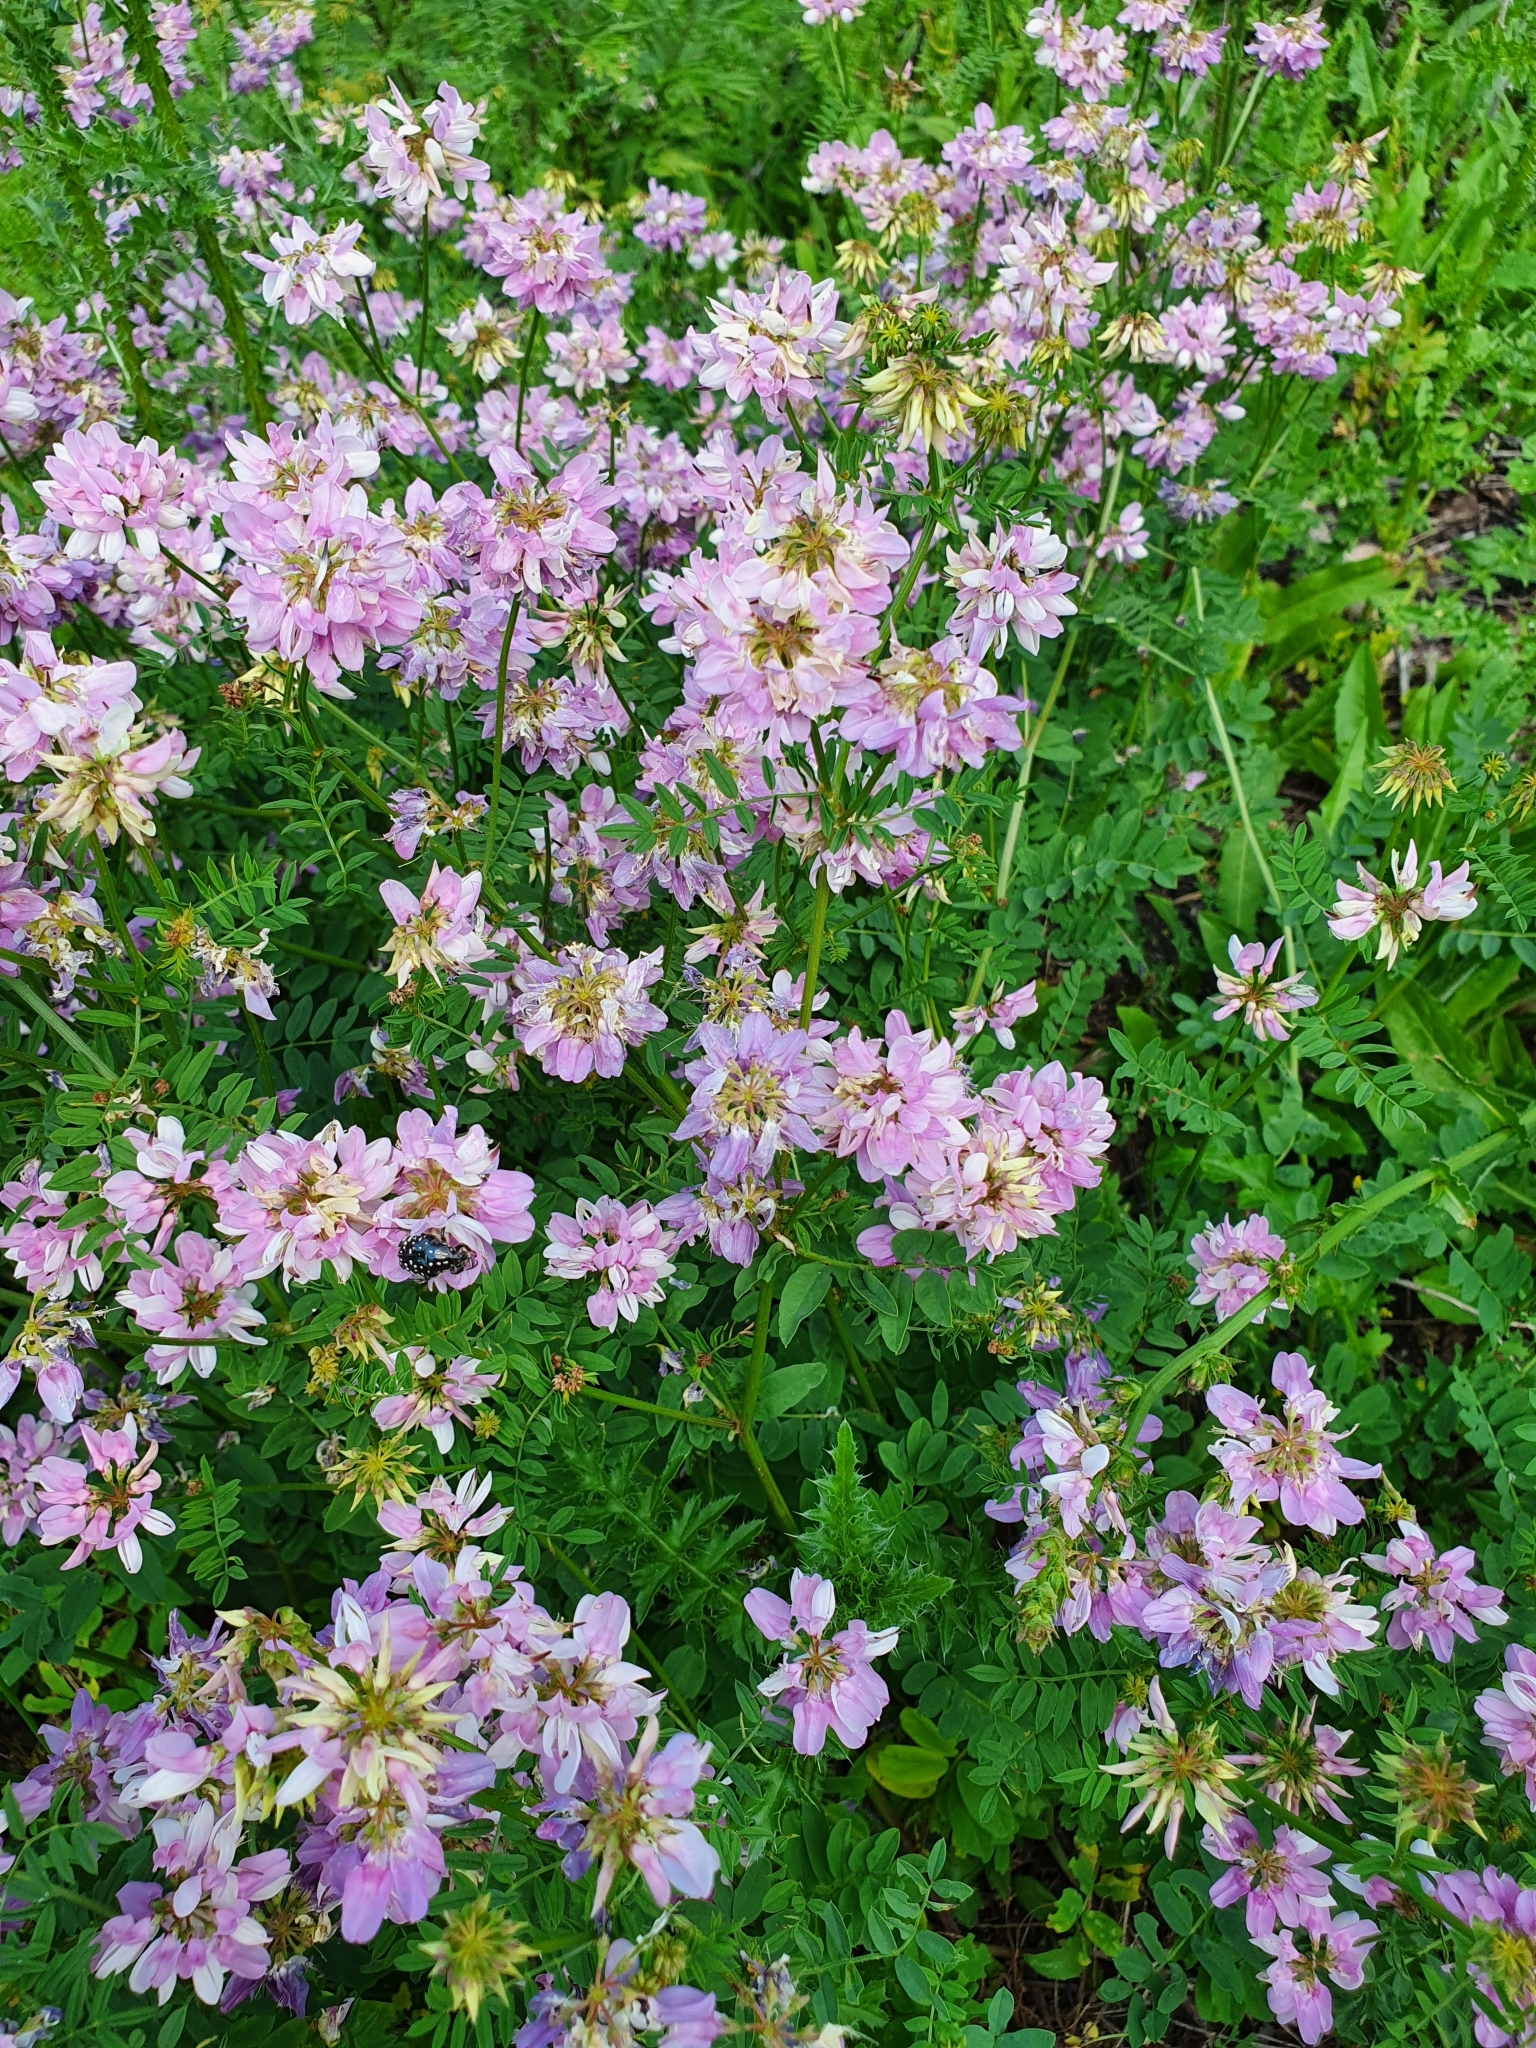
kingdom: Plantae
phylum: Tracheophyta
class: Magnoliopsida
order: Fabales
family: Fabaceae
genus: Coronilla
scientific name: Coronilla varia
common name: Crownvetch
